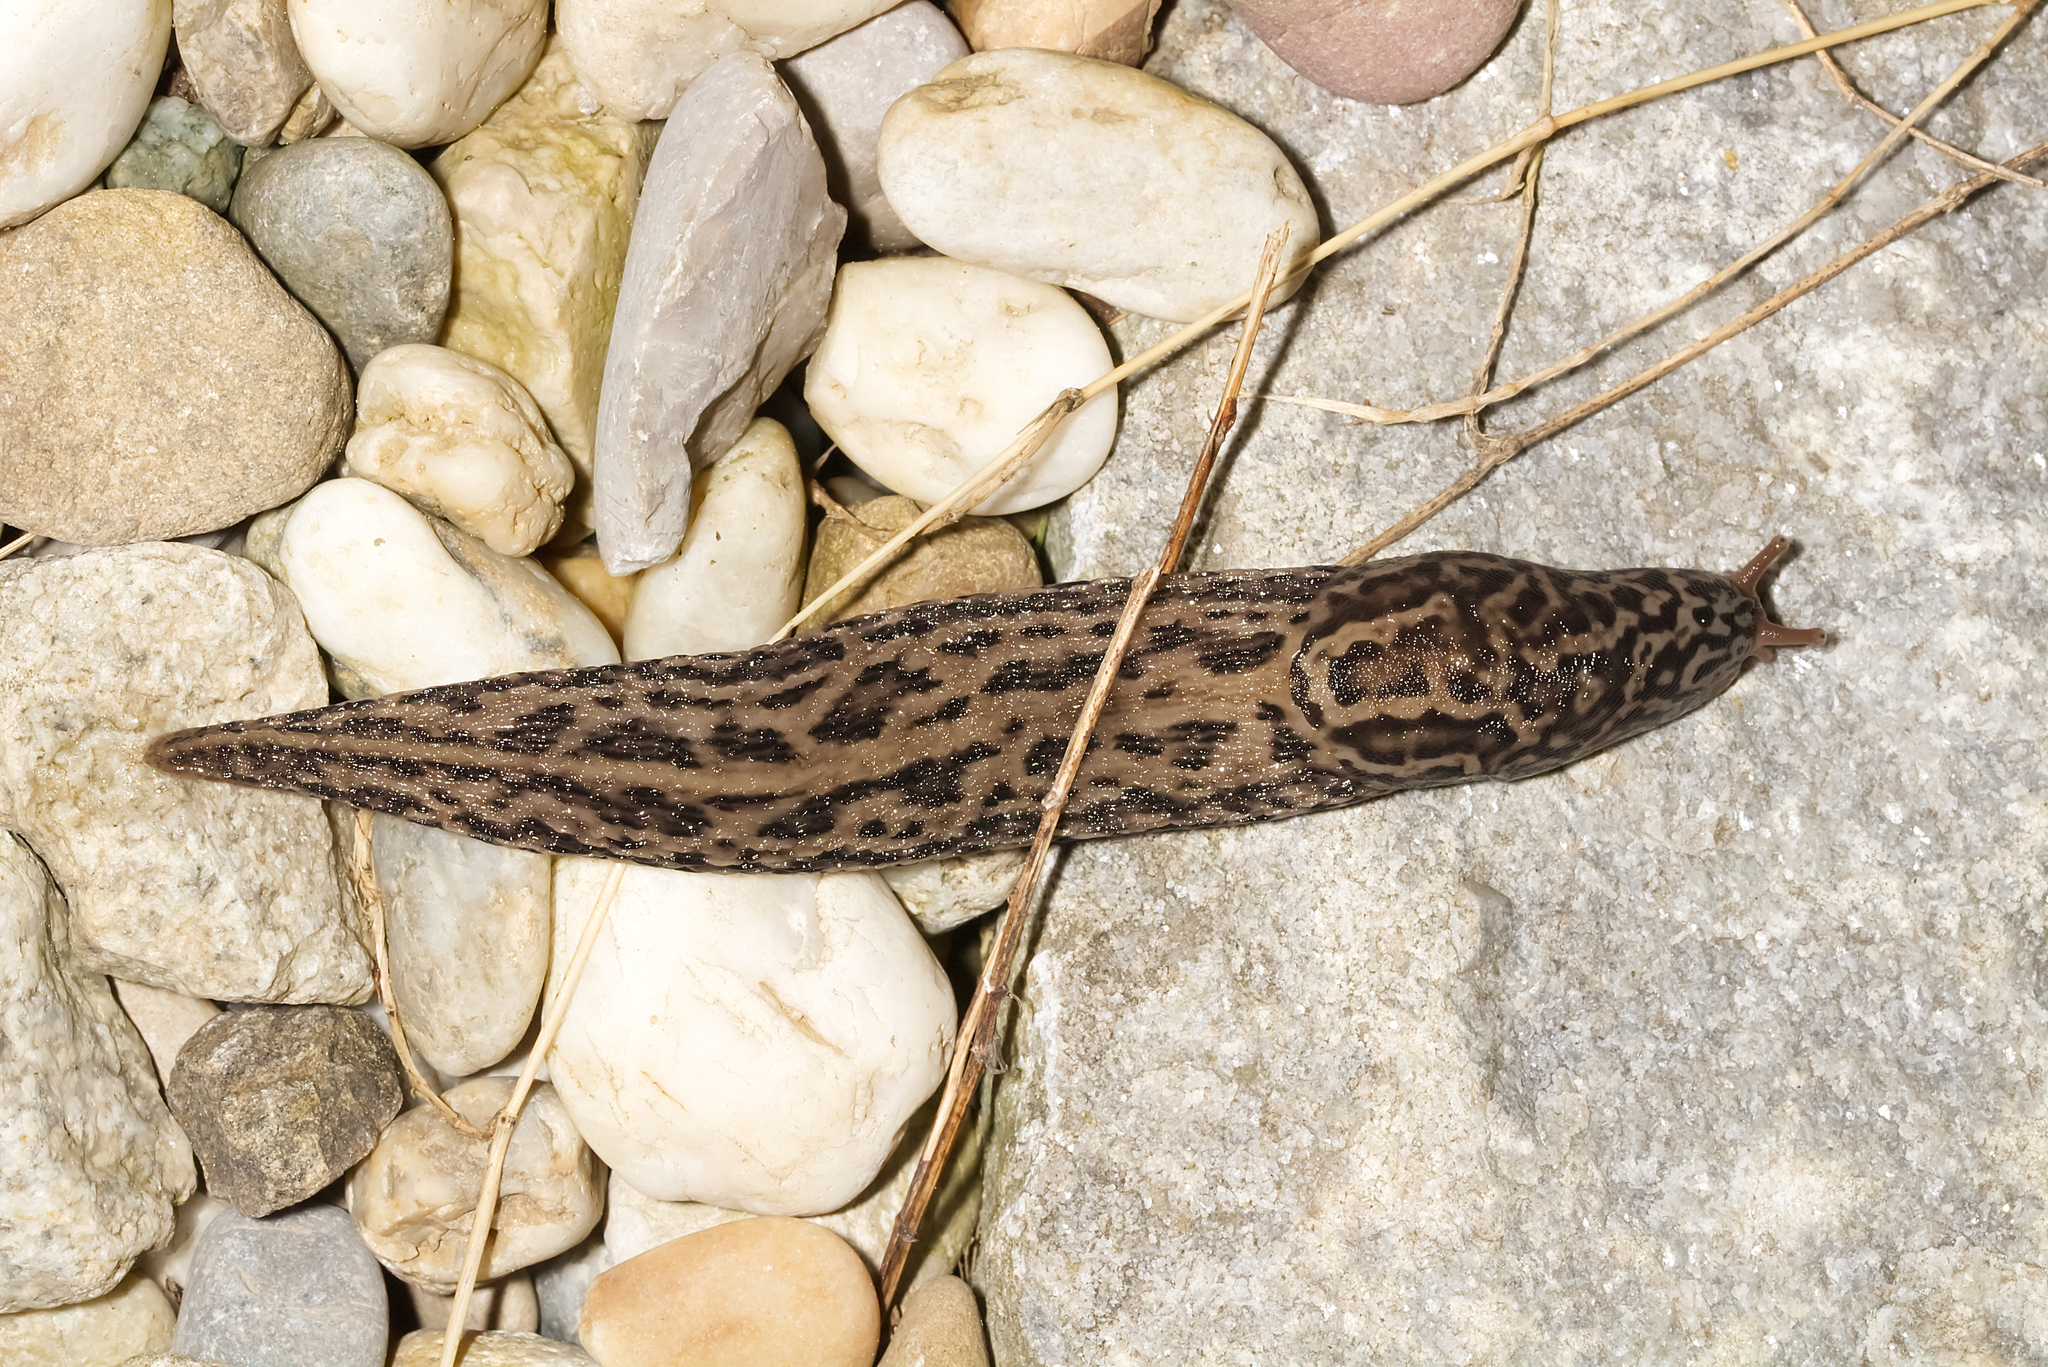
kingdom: Animalia
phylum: Mollusca
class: Gastropoda
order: Stylommatophora
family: Limacidae
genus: Limax
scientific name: Limax maximus
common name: Great grey slug
